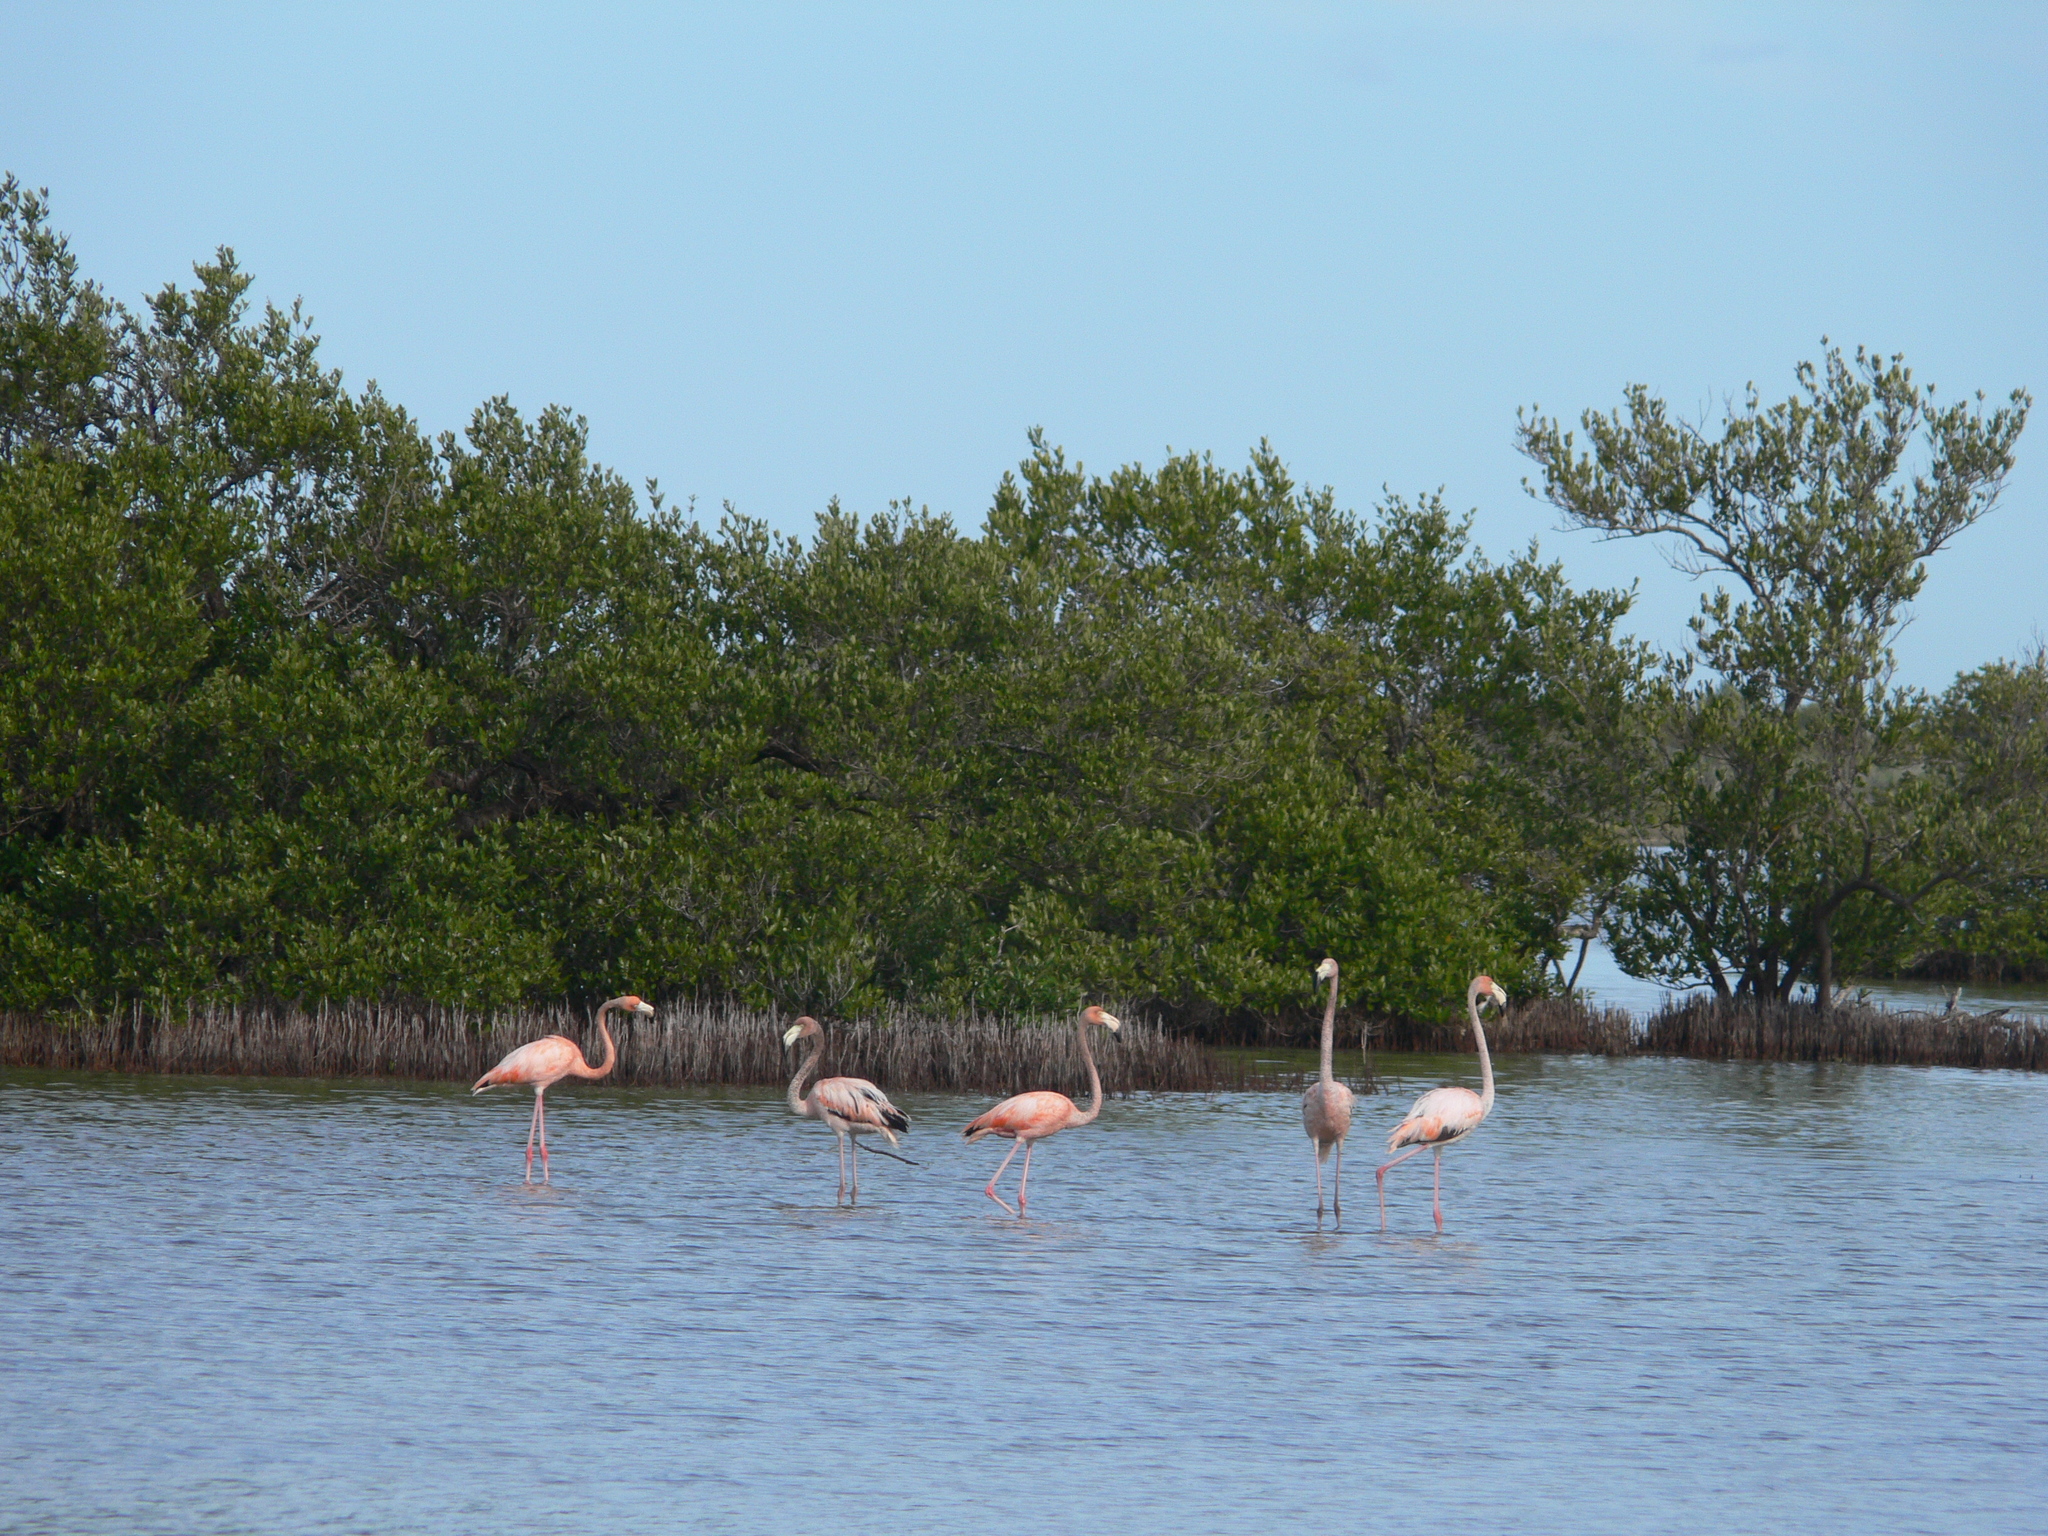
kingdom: Animalia
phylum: Chordata
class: Aves
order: Phoenicopteriformes
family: Phoenicopteridae
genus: Phoenicopterus
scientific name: Phoenicopterus ruber
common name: American flamingo
